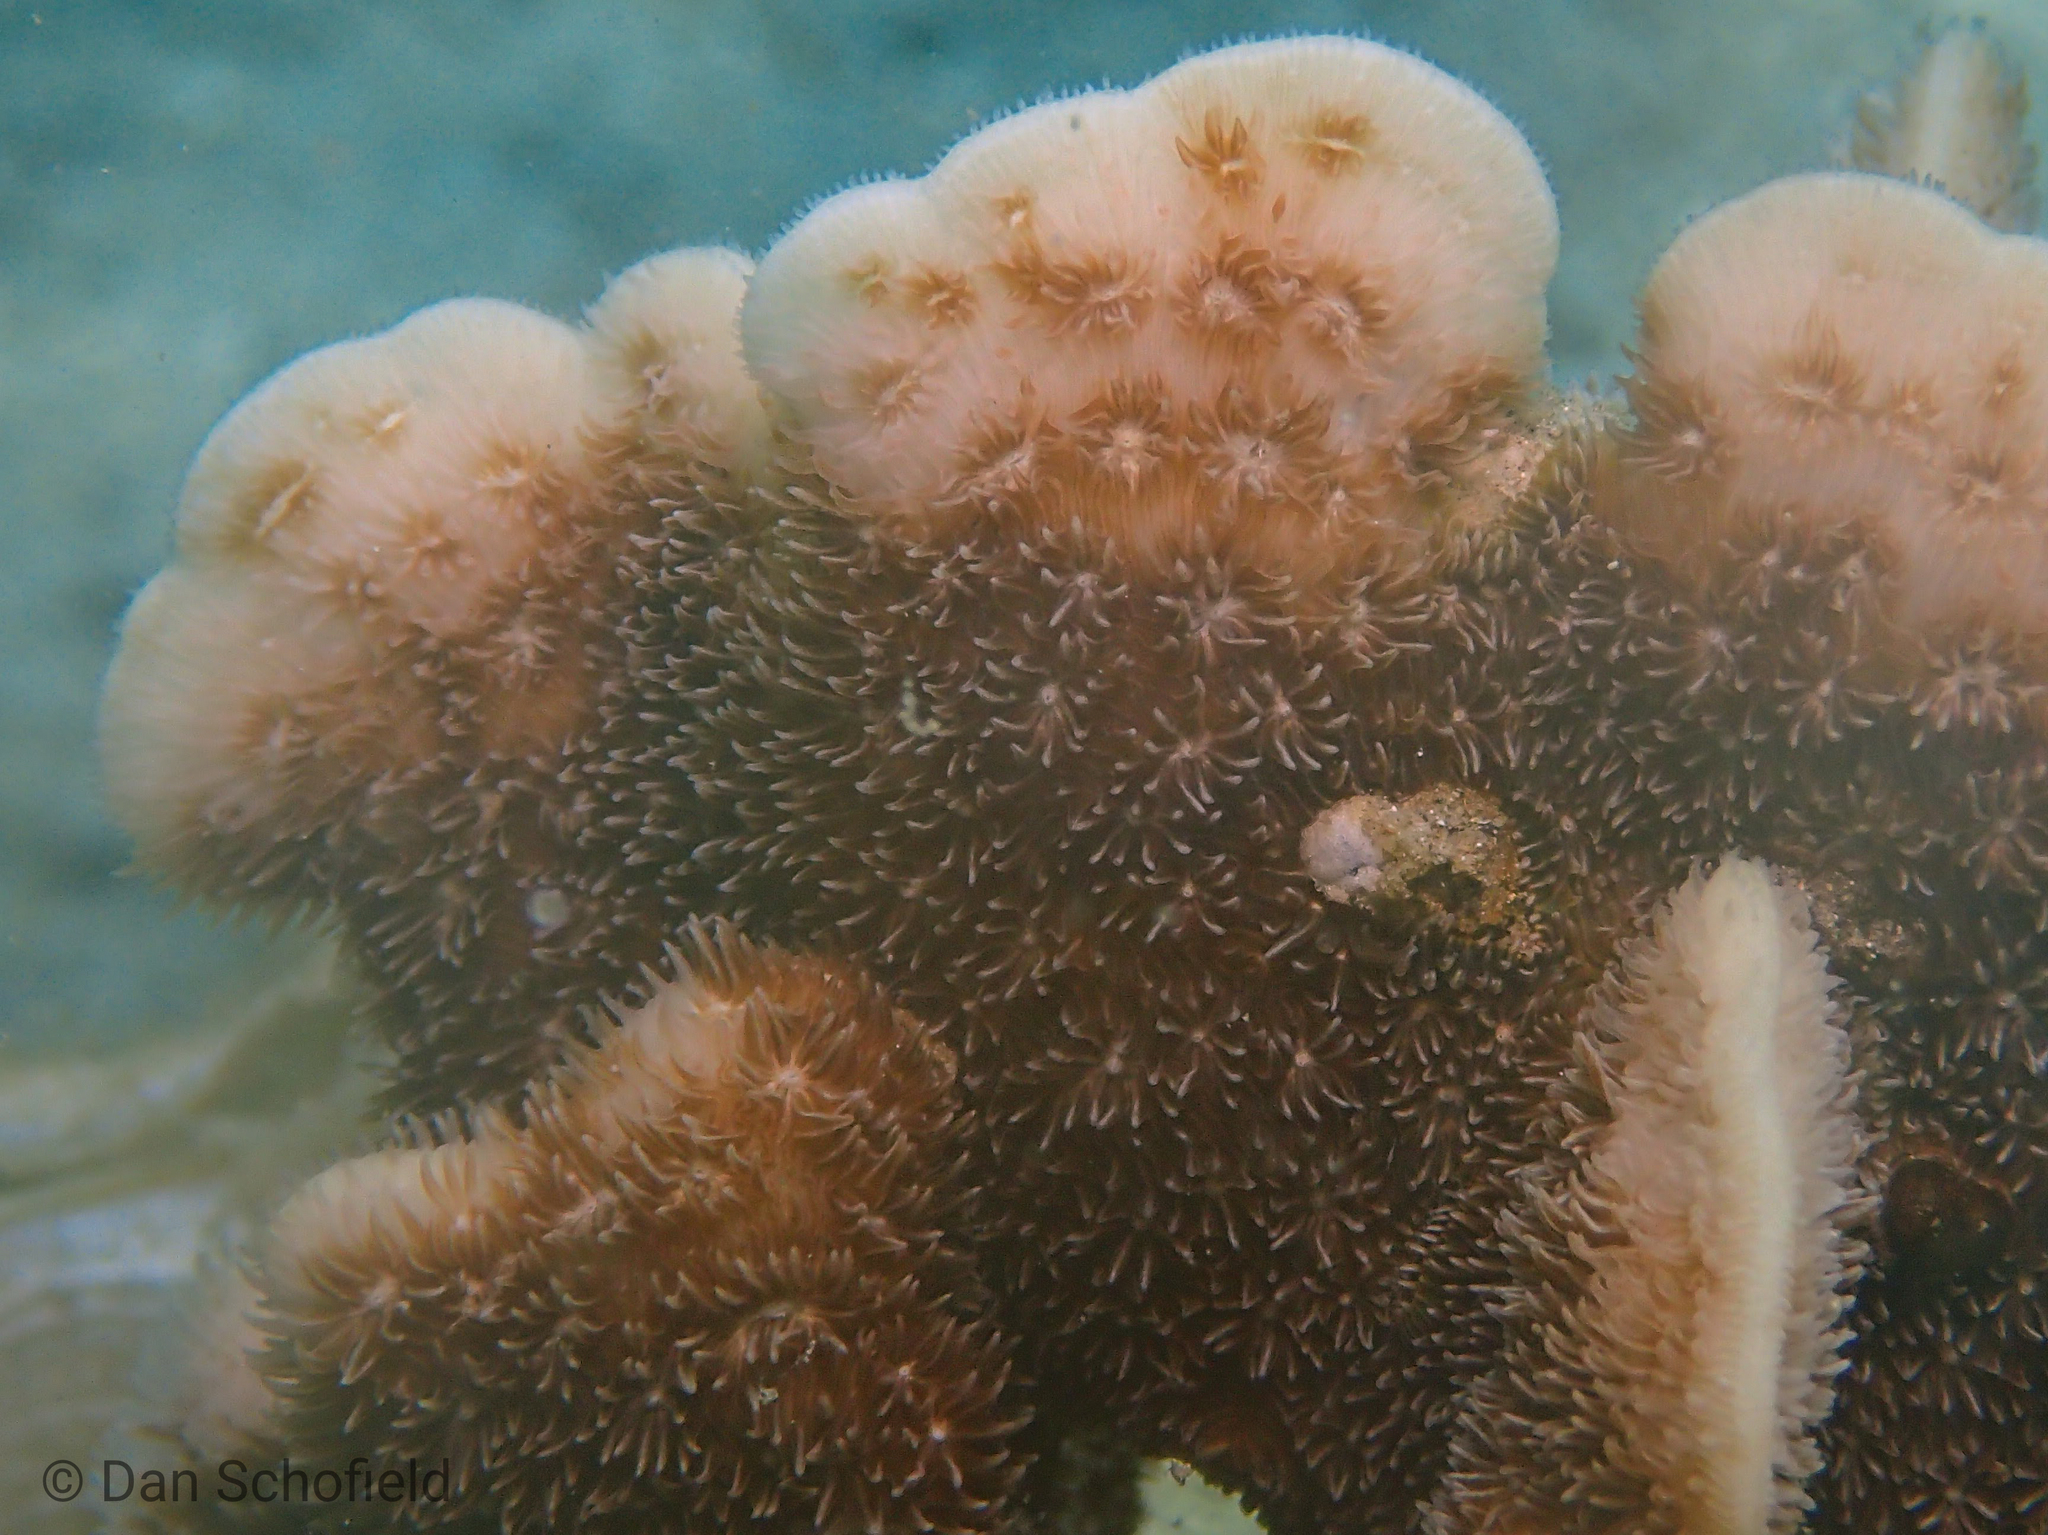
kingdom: Animalia
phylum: Cnidaria
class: Anthozoa
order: Scleractinia
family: Agariciidae
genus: Pavona
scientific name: Pavona decussata
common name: Leaf coral
